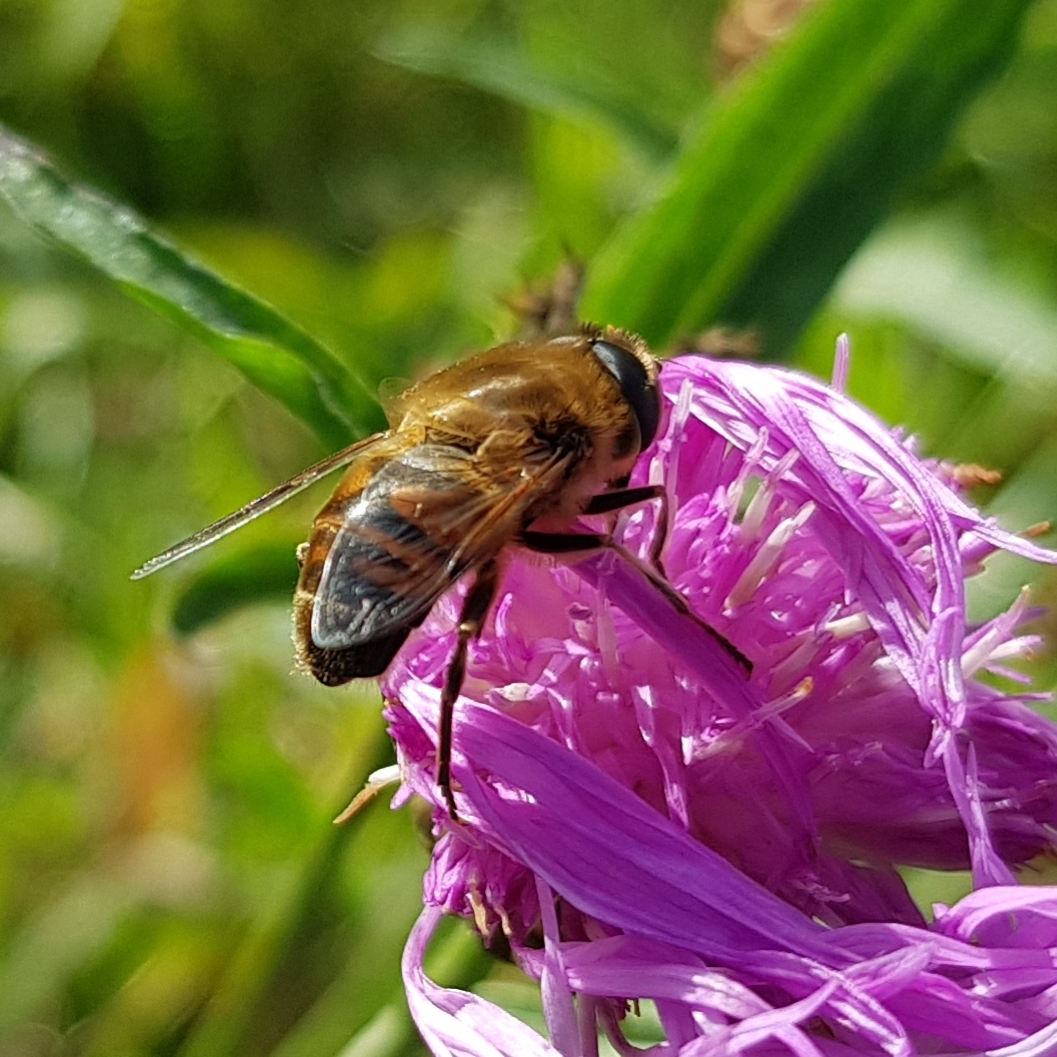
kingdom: Animalia
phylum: Arthropoda
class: Insecta
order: Diptera
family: Syrphidae
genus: Eristalis
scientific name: Eristalis tenax
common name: Drone fly
